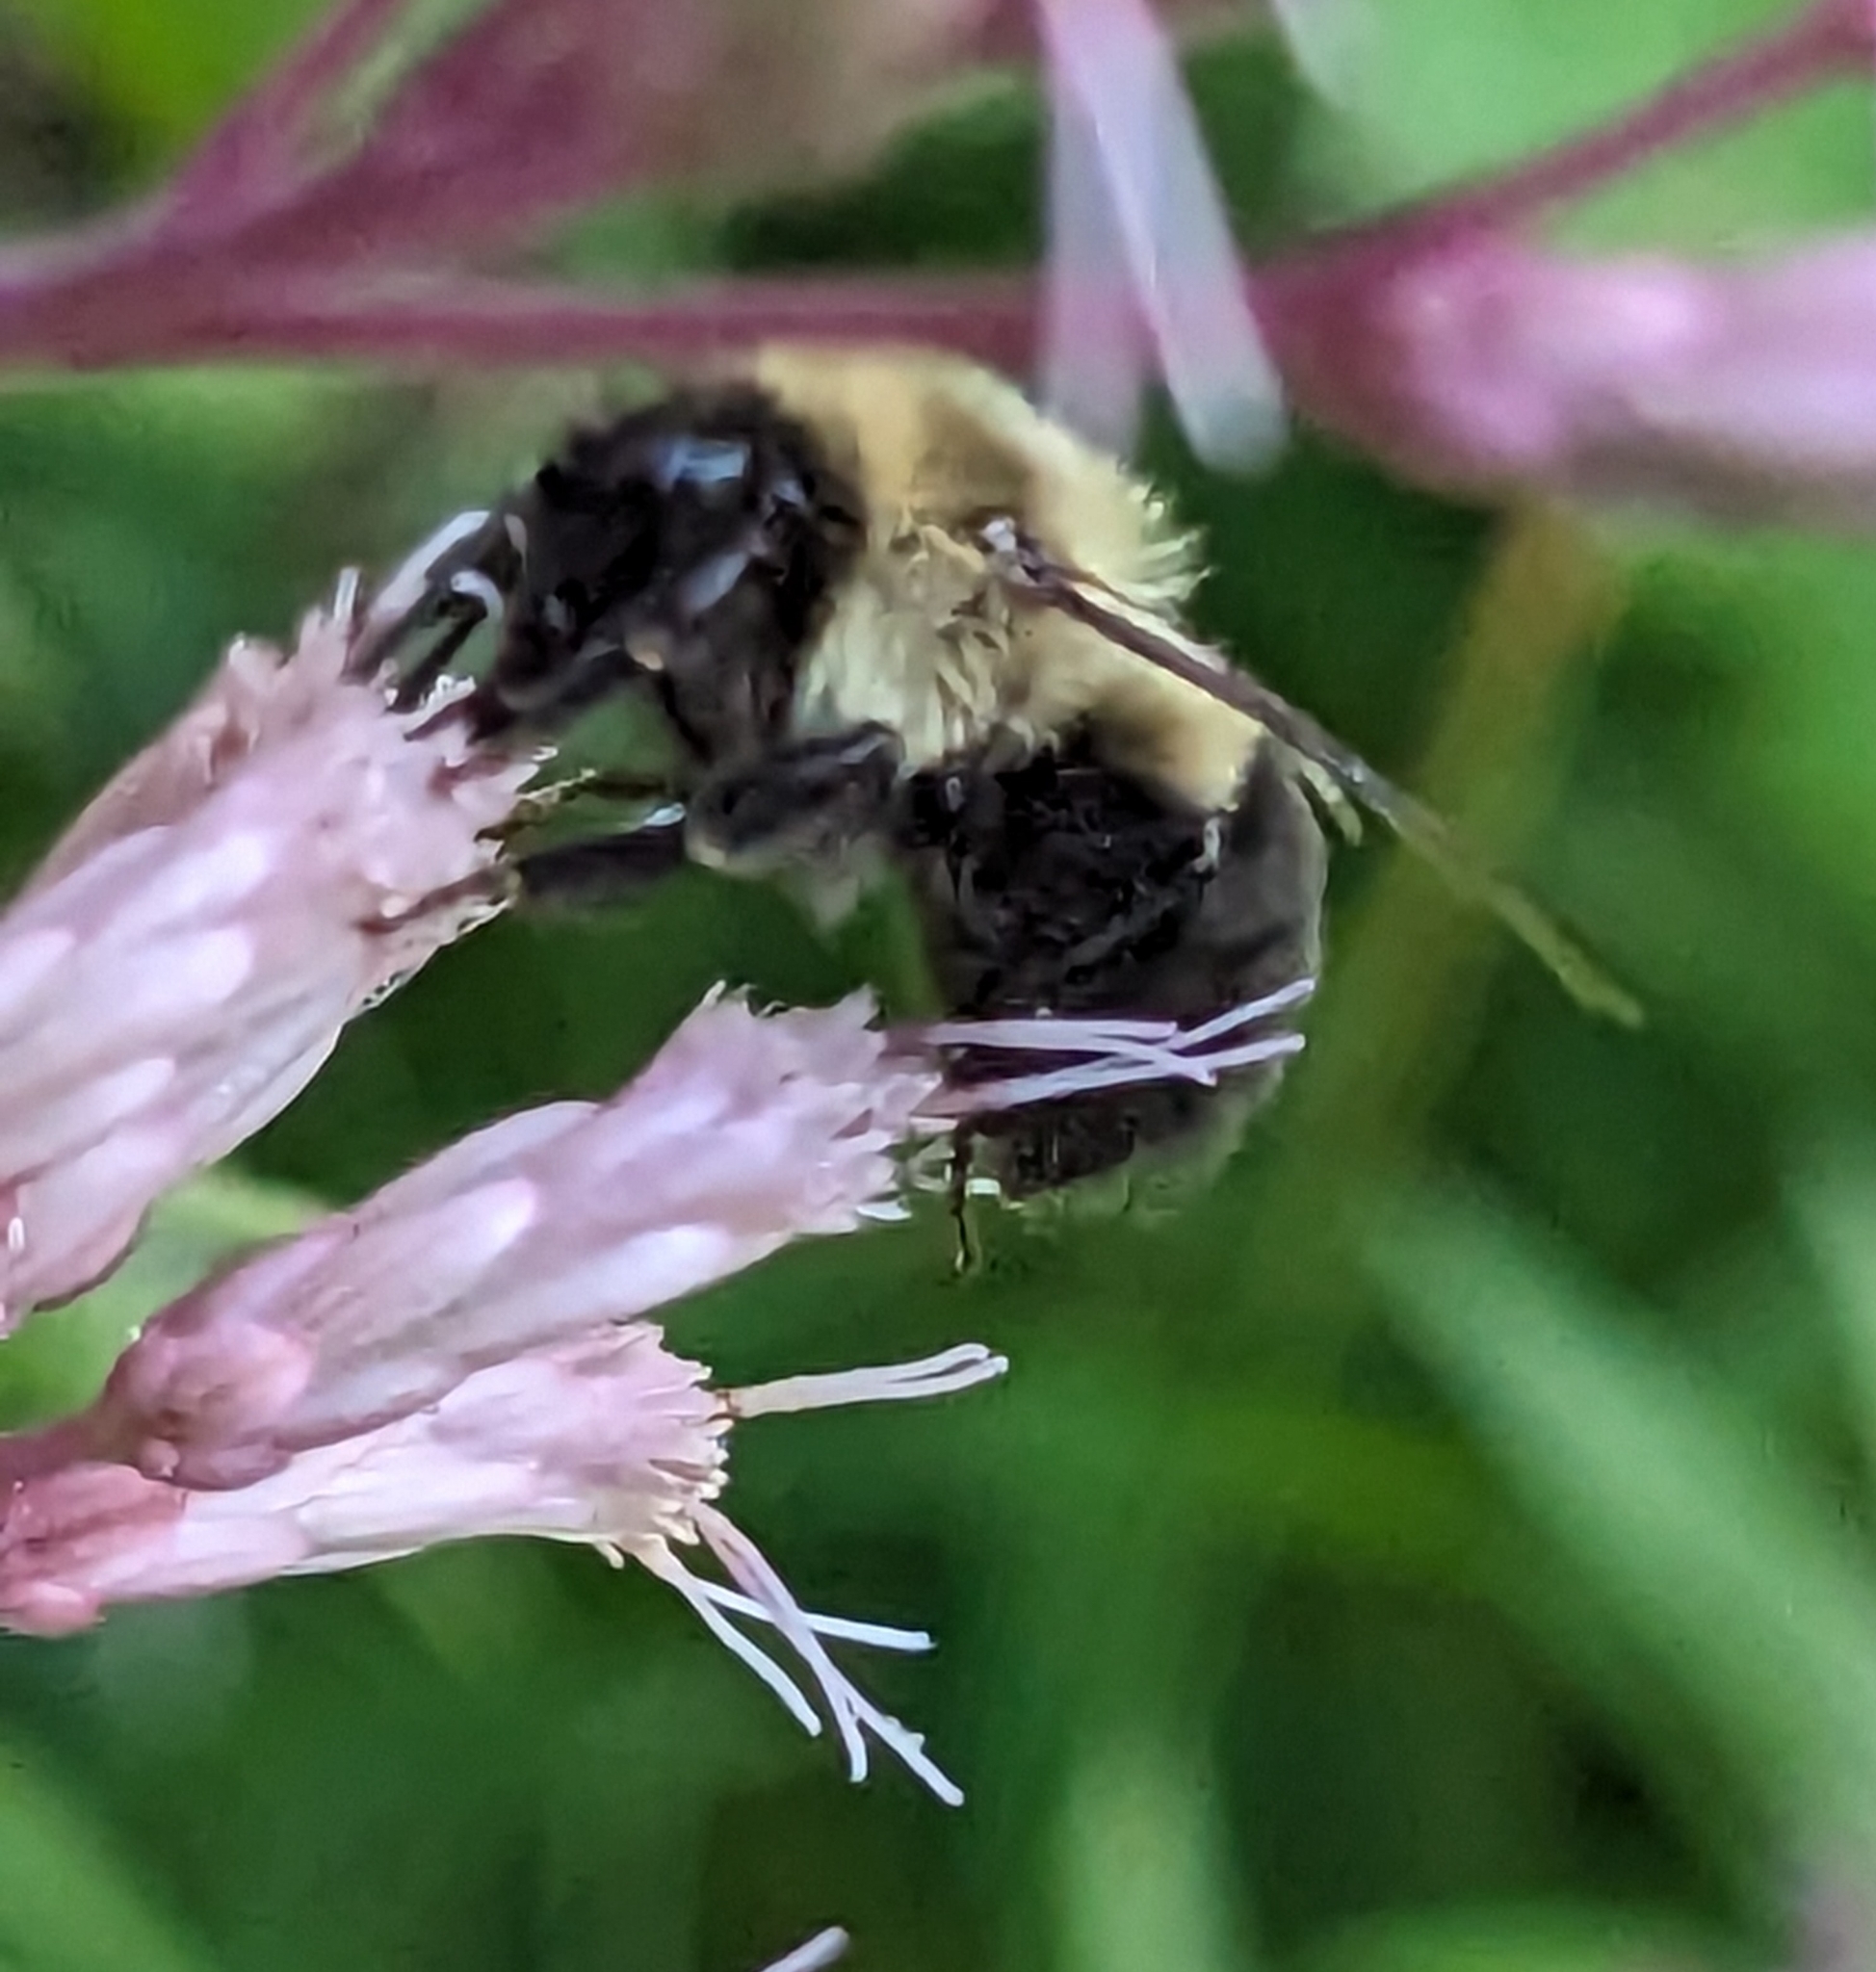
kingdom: Animalia
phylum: Arthropoda
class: Insecta
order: Hymenoptera
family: Apidae
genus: Bombus
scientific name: Bombus impatiens
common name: Common eastern bumble bee
